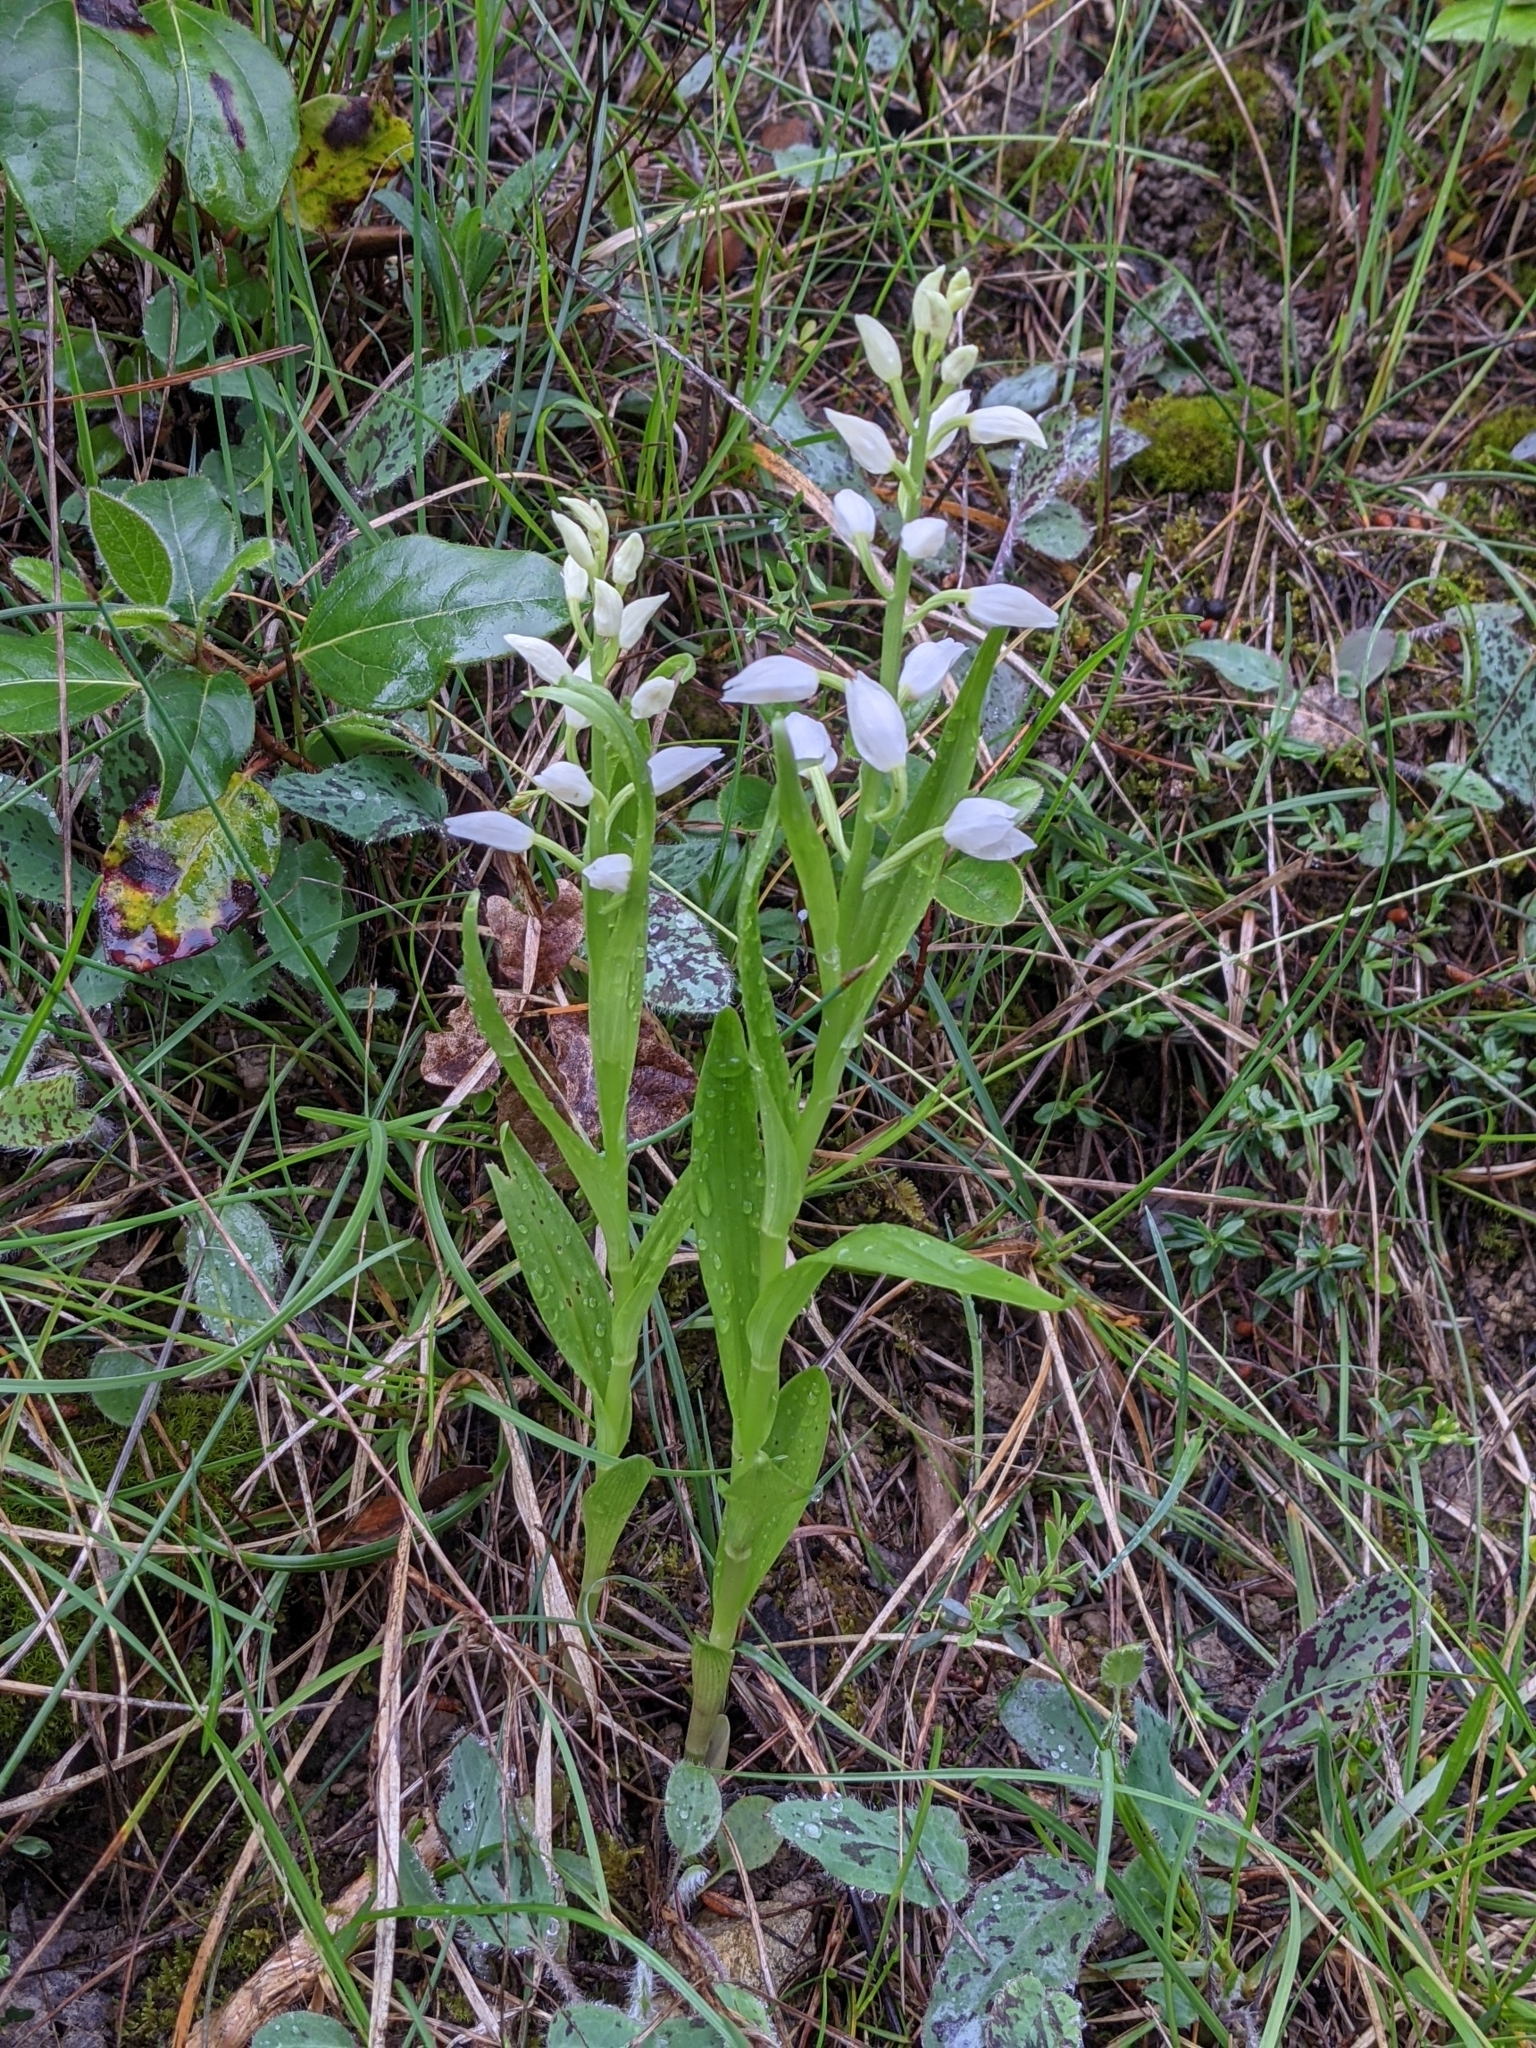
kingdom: Plantae
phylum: Tracheophyta
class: Liliopsida
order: Asparagales
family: Orchidaceae
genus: Cephalanthera
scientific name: Cephalanthera longifolia
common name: Narrow-leaved helleborine
